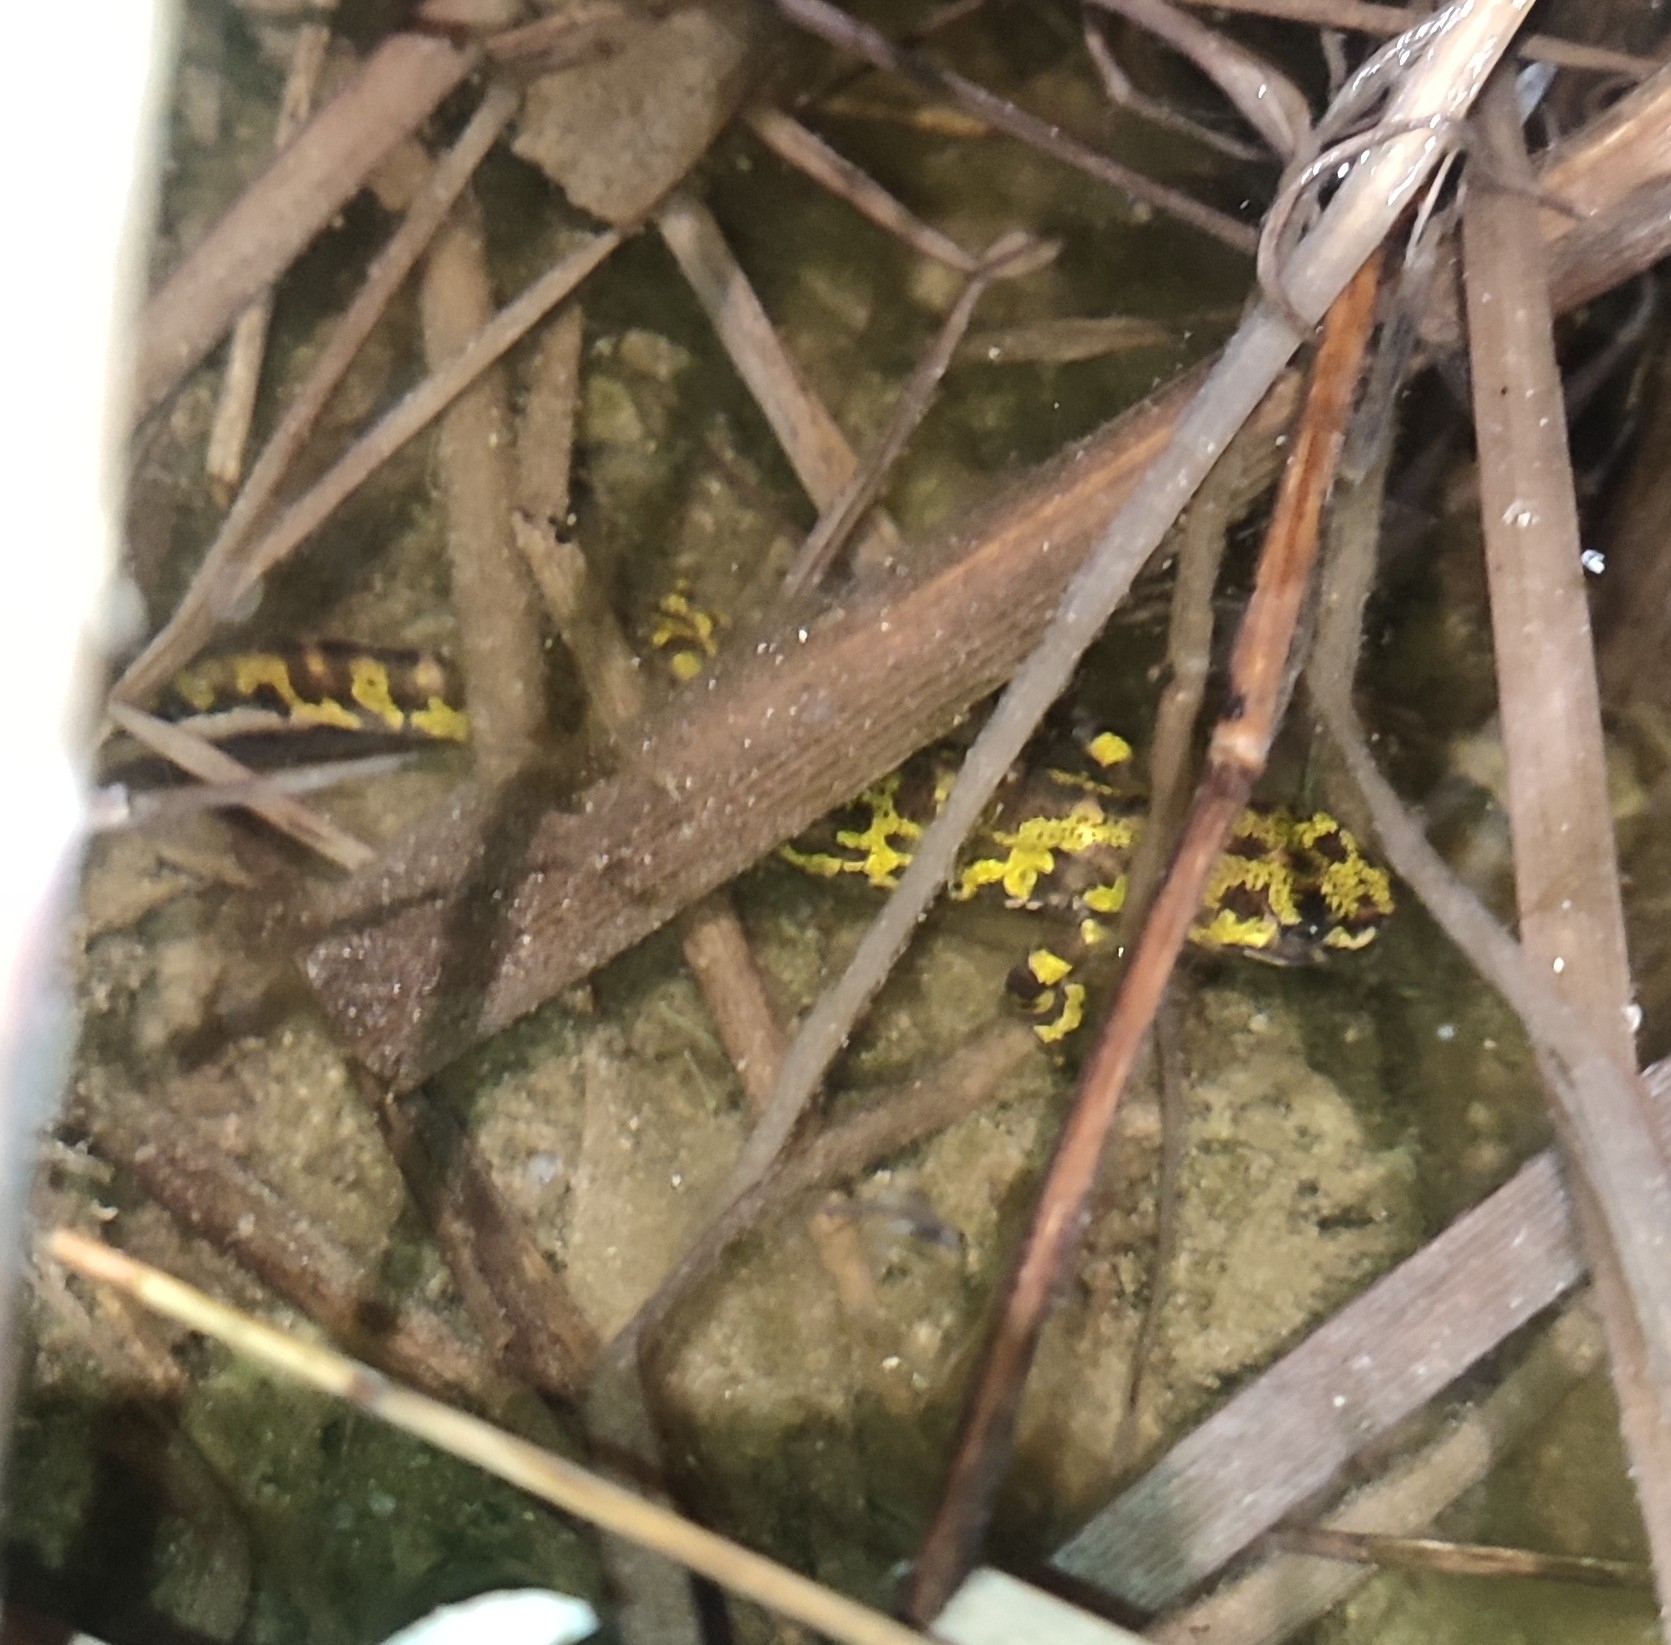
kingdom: Animalia
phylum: Chordata
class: Amphibia
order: Caudata
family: Salamandridae
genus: Triturus
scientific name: Triturus marmoratus
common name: Marbled newt
